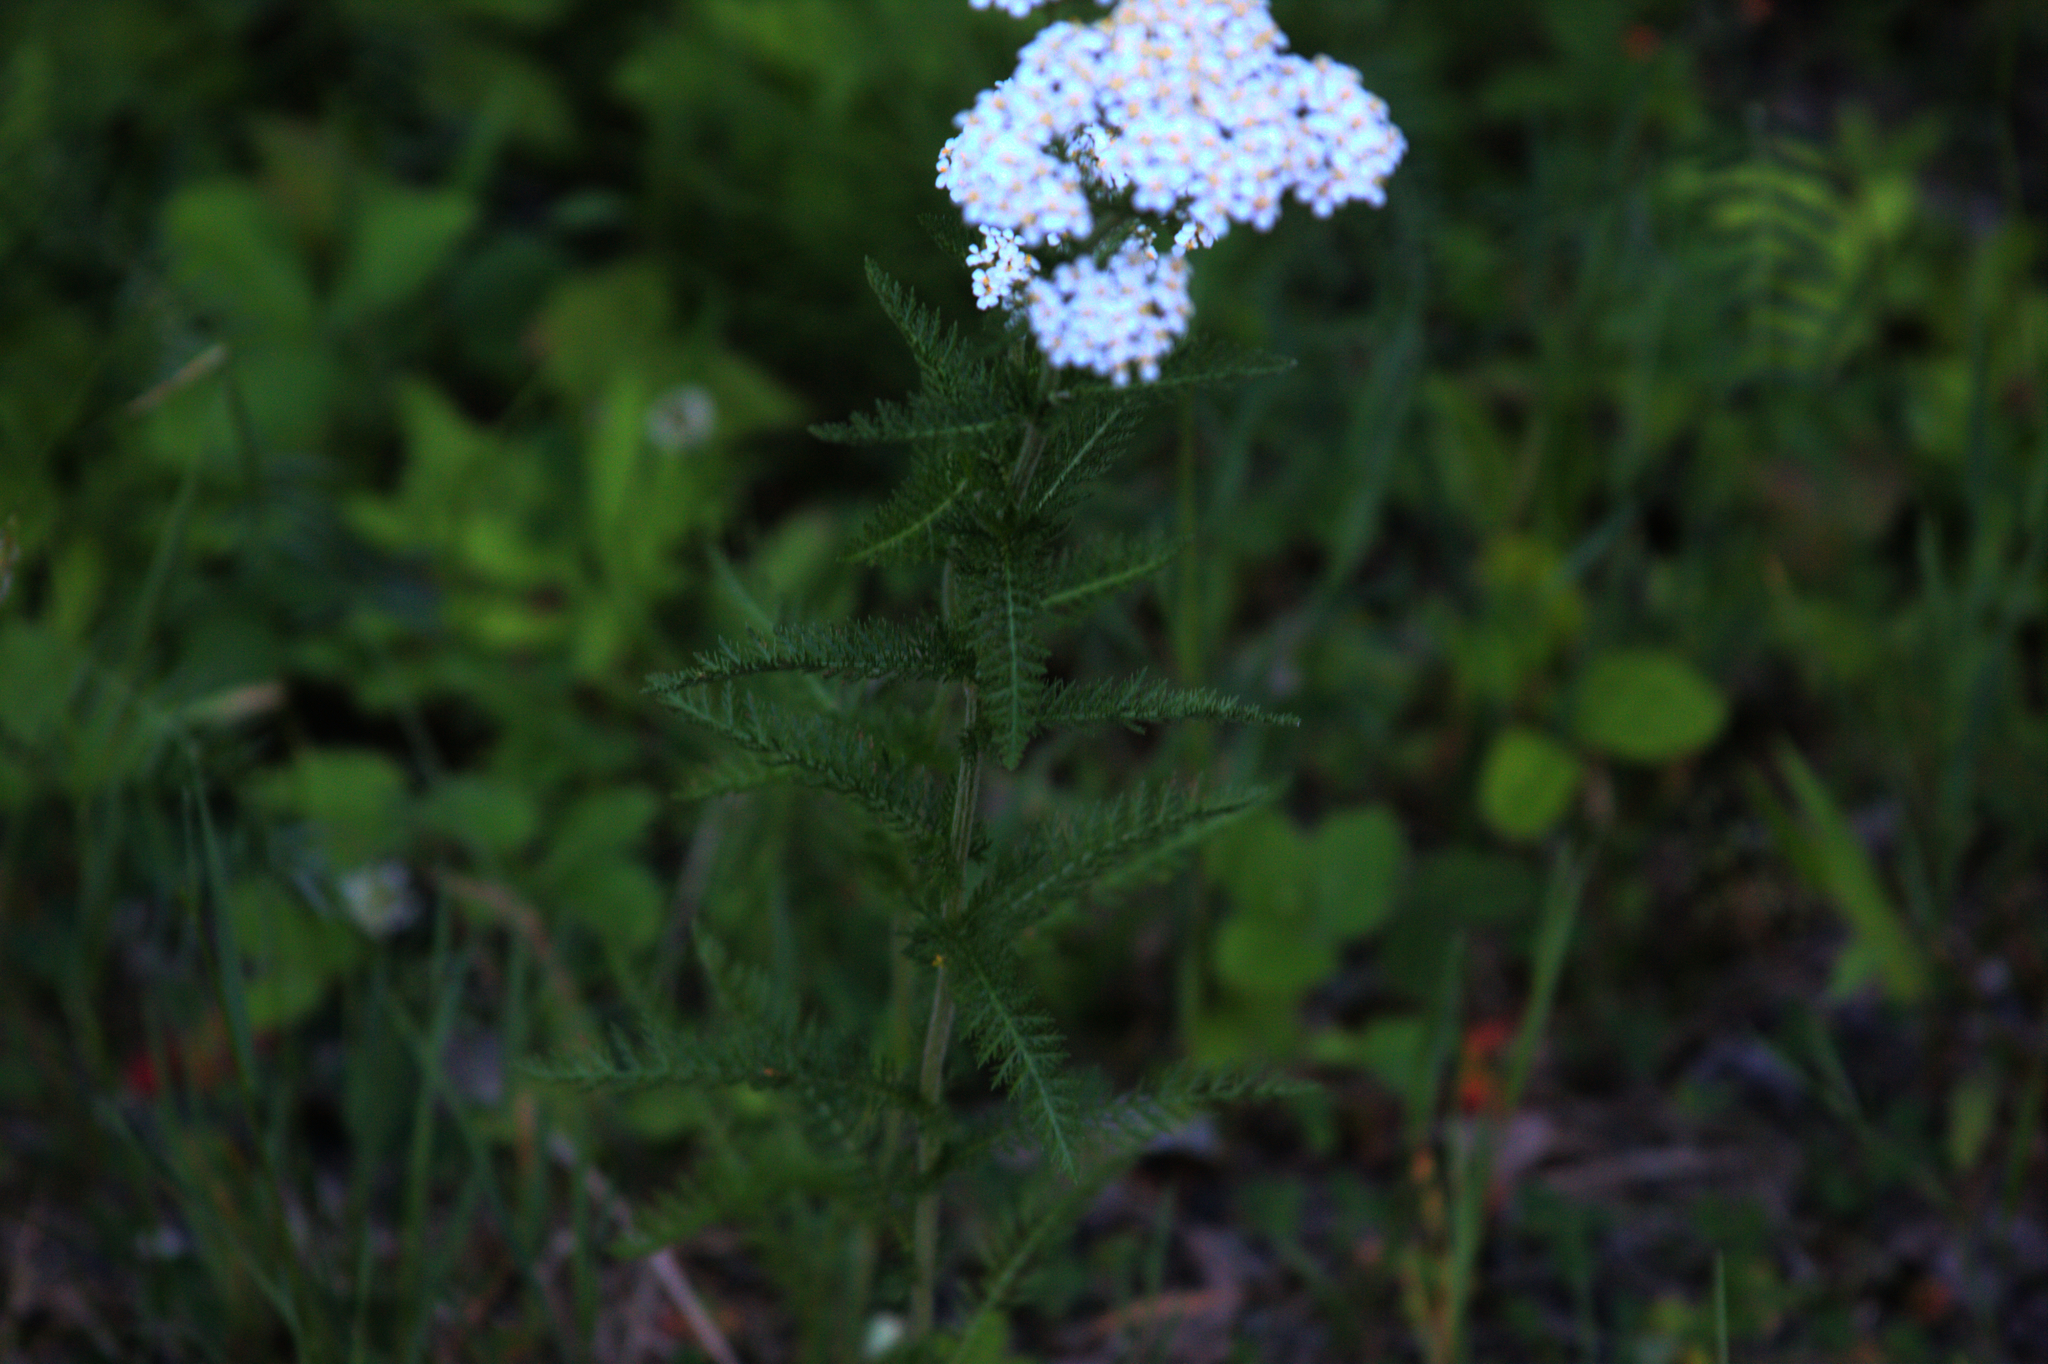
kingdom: Plantae
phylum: Tracheophyta
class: Magnoliopsida
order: Asterales
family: Asteraceae
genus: Achillea
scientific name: Achillea millefolium
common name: Yarrow
